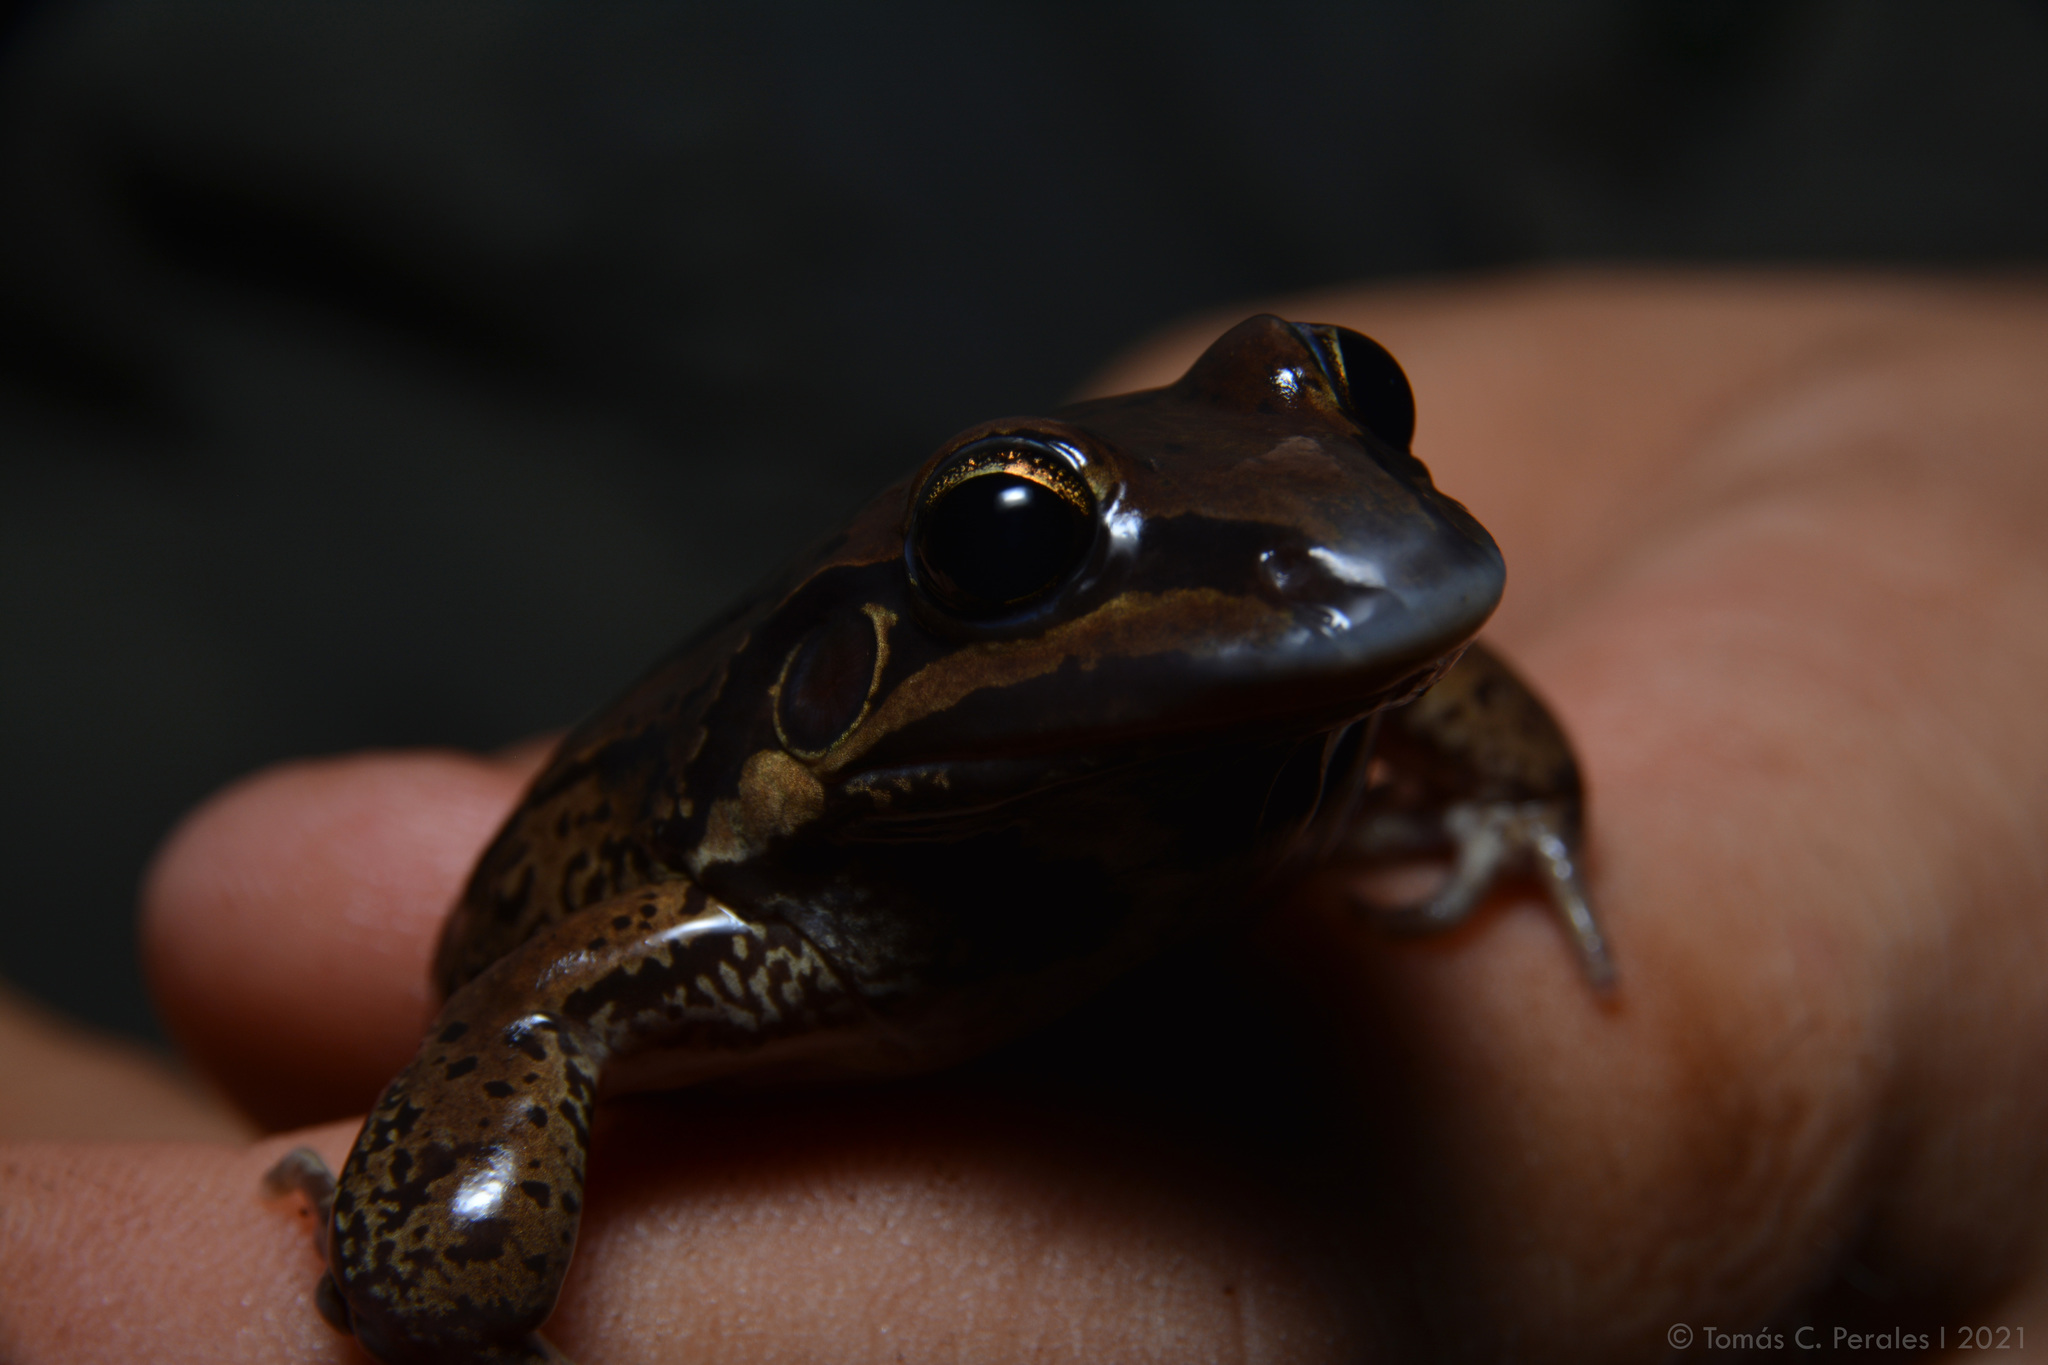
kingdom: Animalia
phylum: Chordata
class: Amphibia
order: Anura
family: Leptodactylidae
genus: Leptodactylus
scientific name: Leptodactylus luctator
